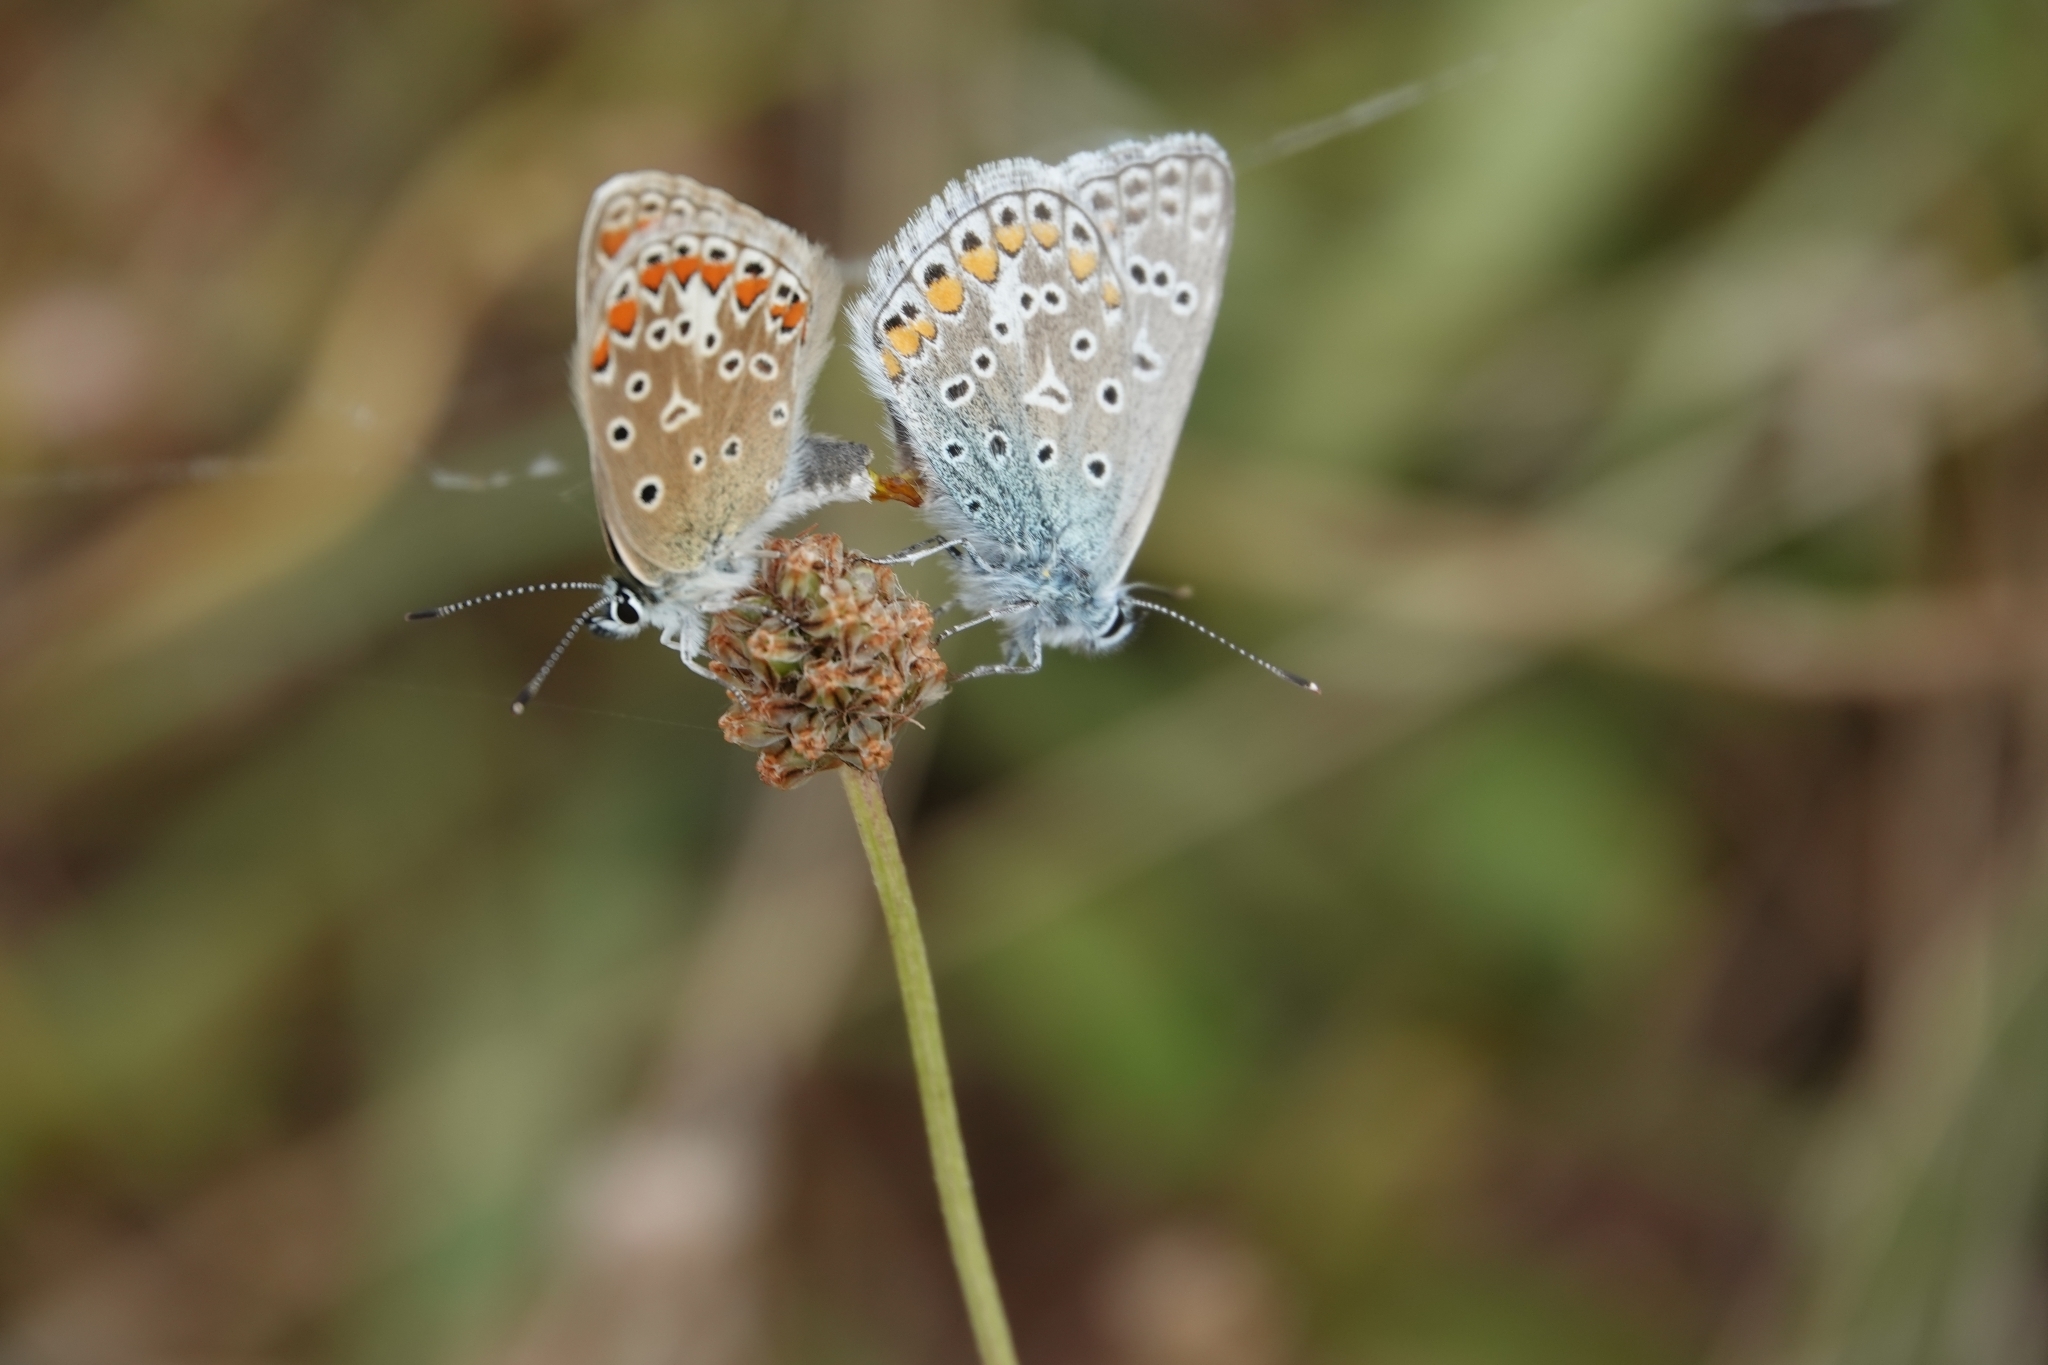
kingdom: Animalia
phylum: Arthropoda
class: Insecta
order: Lepidoptera
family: Lycaenidae
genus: Polyommatus
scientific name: Polyommatus icarus
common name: Common blue
